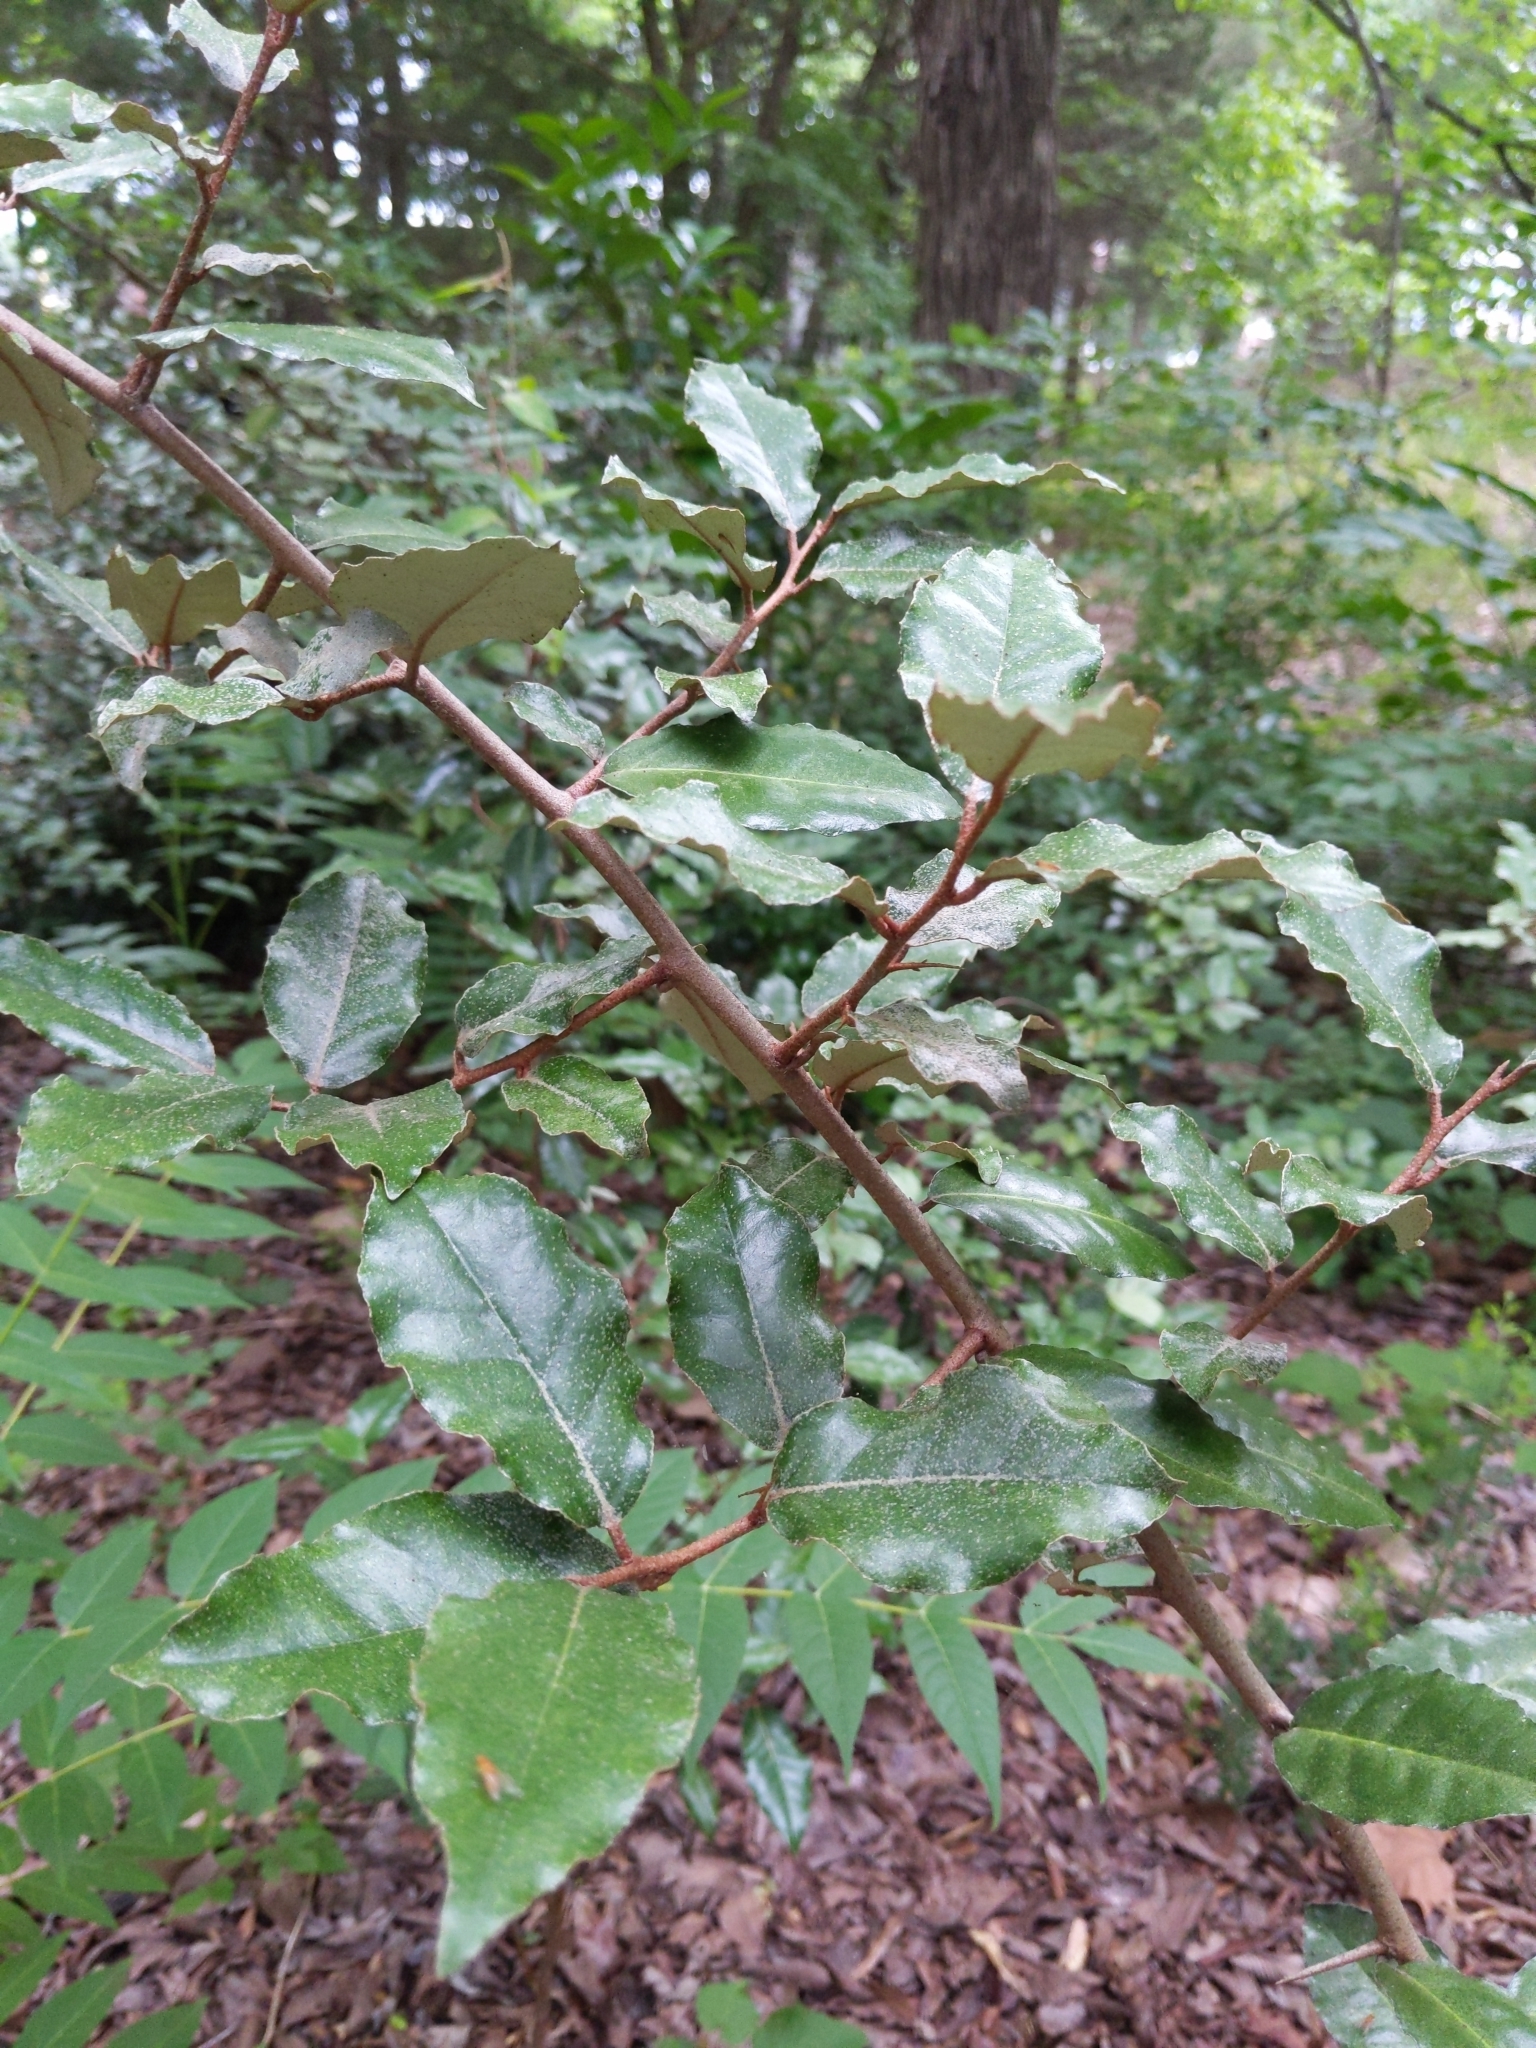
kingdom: Plantae
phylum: Tracheophyta
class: Magnoliopsida
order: Rosales
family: Elaeagnaceae
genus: Elaeagnus
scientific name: Elaeagnus pungens
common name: Spiny oleaster
